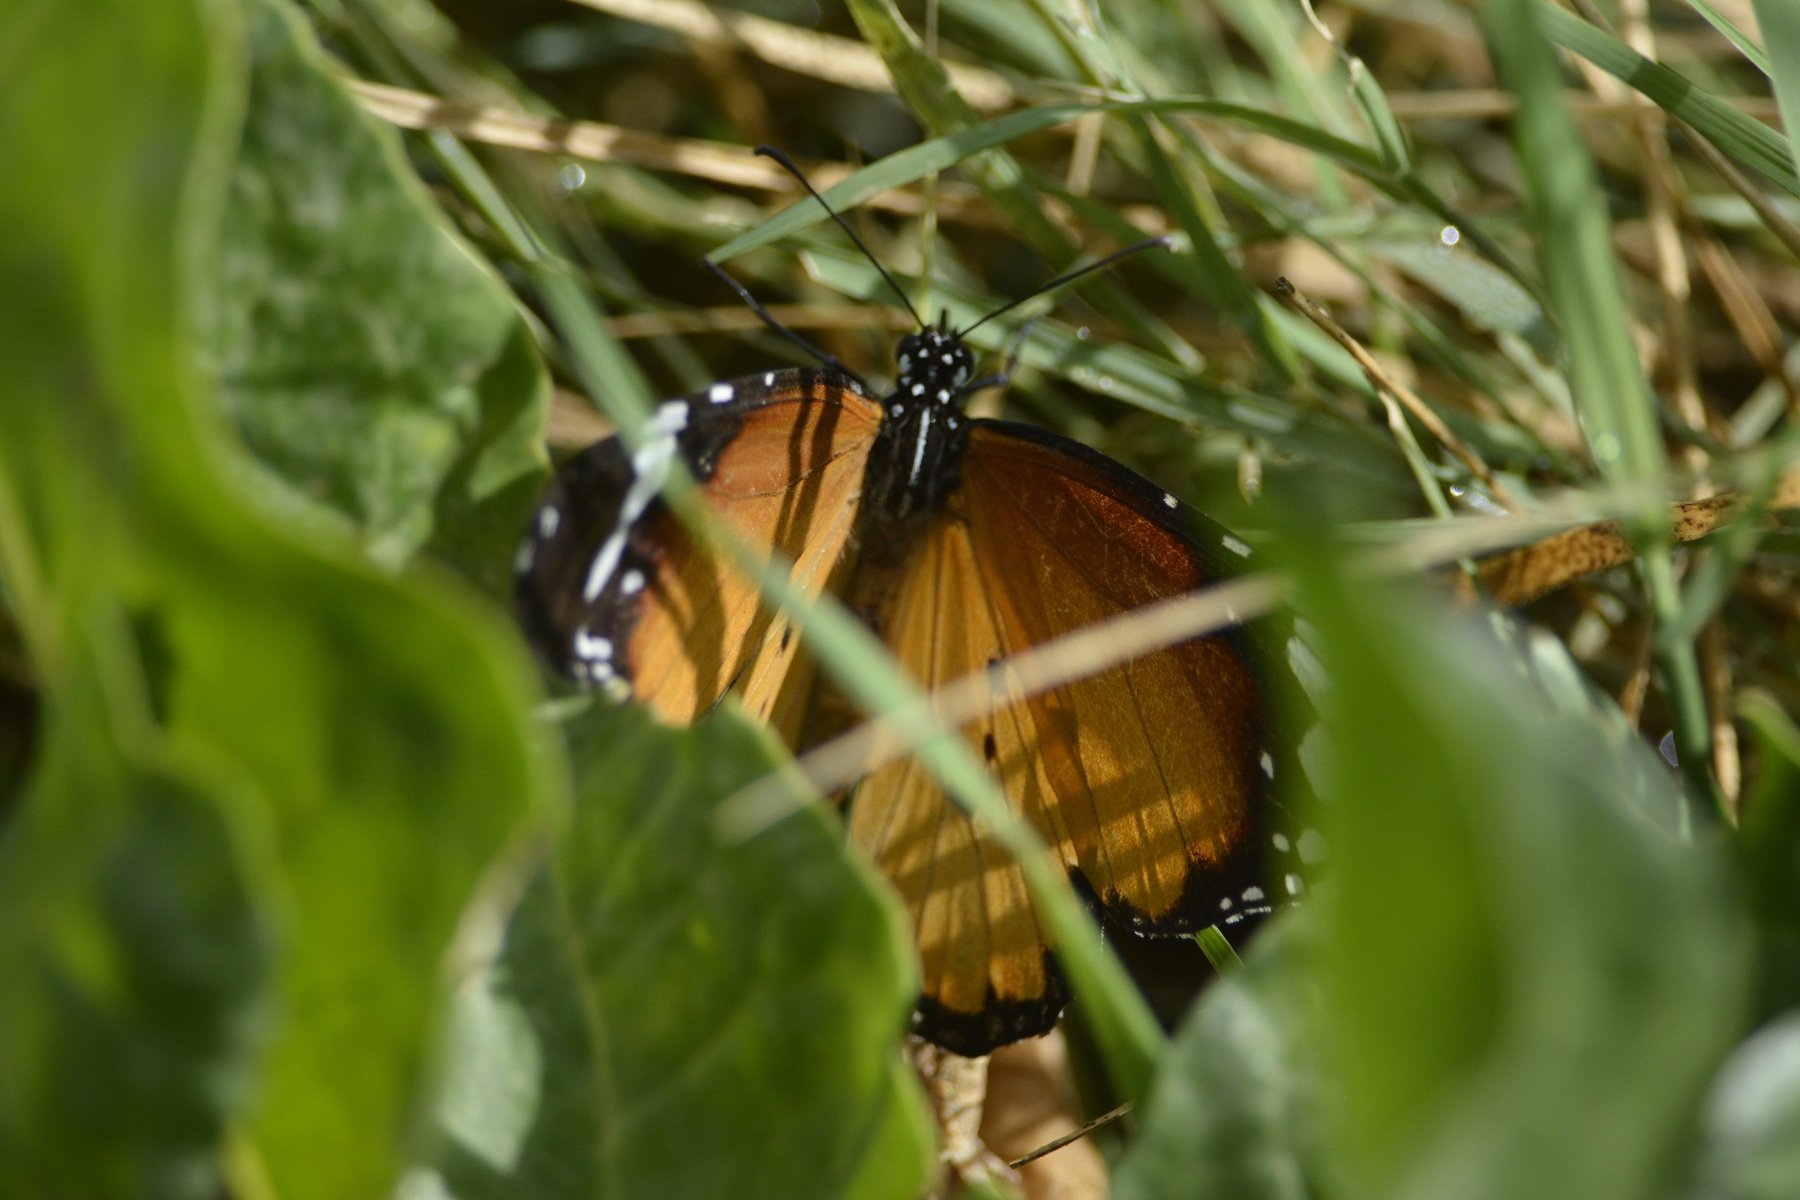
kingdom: Animalia
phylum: Arthropoda
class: Insecta
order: Lepidoptera
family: Nymphalidae
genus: Danaus
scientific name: Danaus chrysippus
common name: Plain tiger
